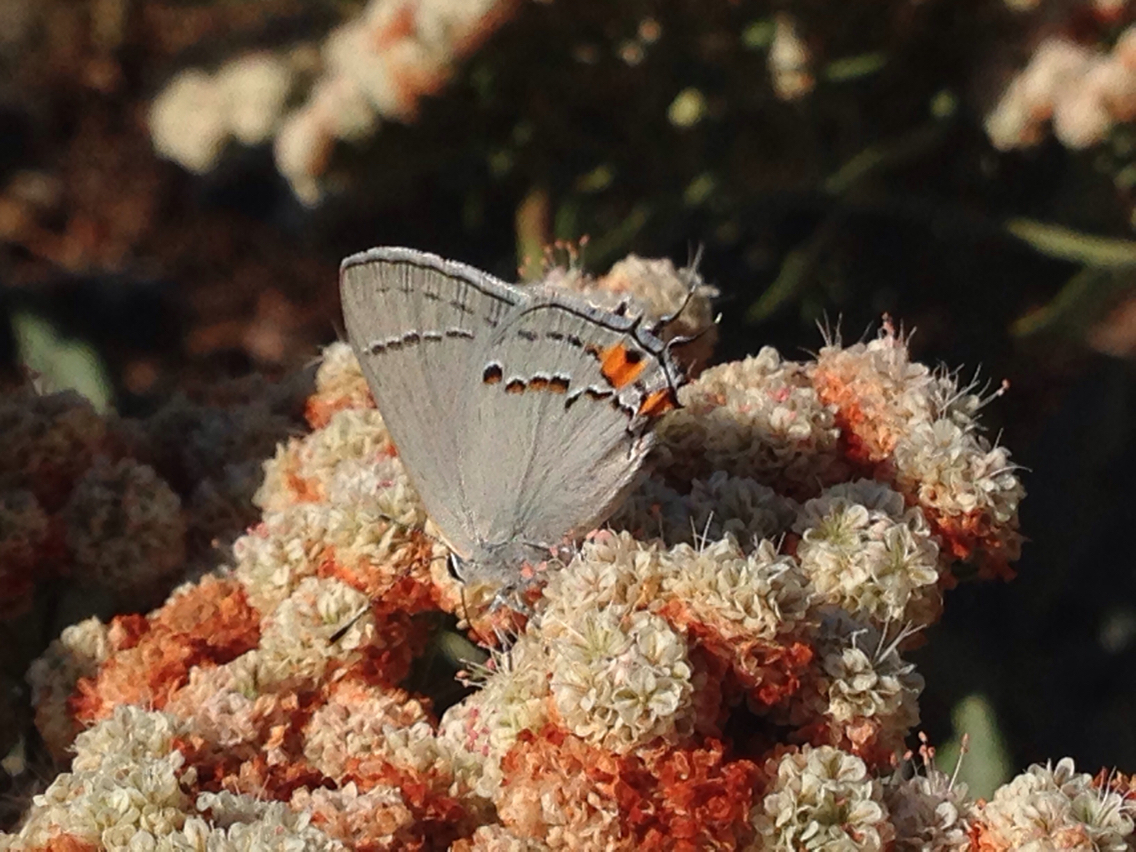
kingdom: Animalia
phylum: Arthropoda
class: Insecta
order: Lepidoptera
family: Lycaenidae
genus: Strymon
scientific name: Strymon melinus
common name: Gray hairstreak
